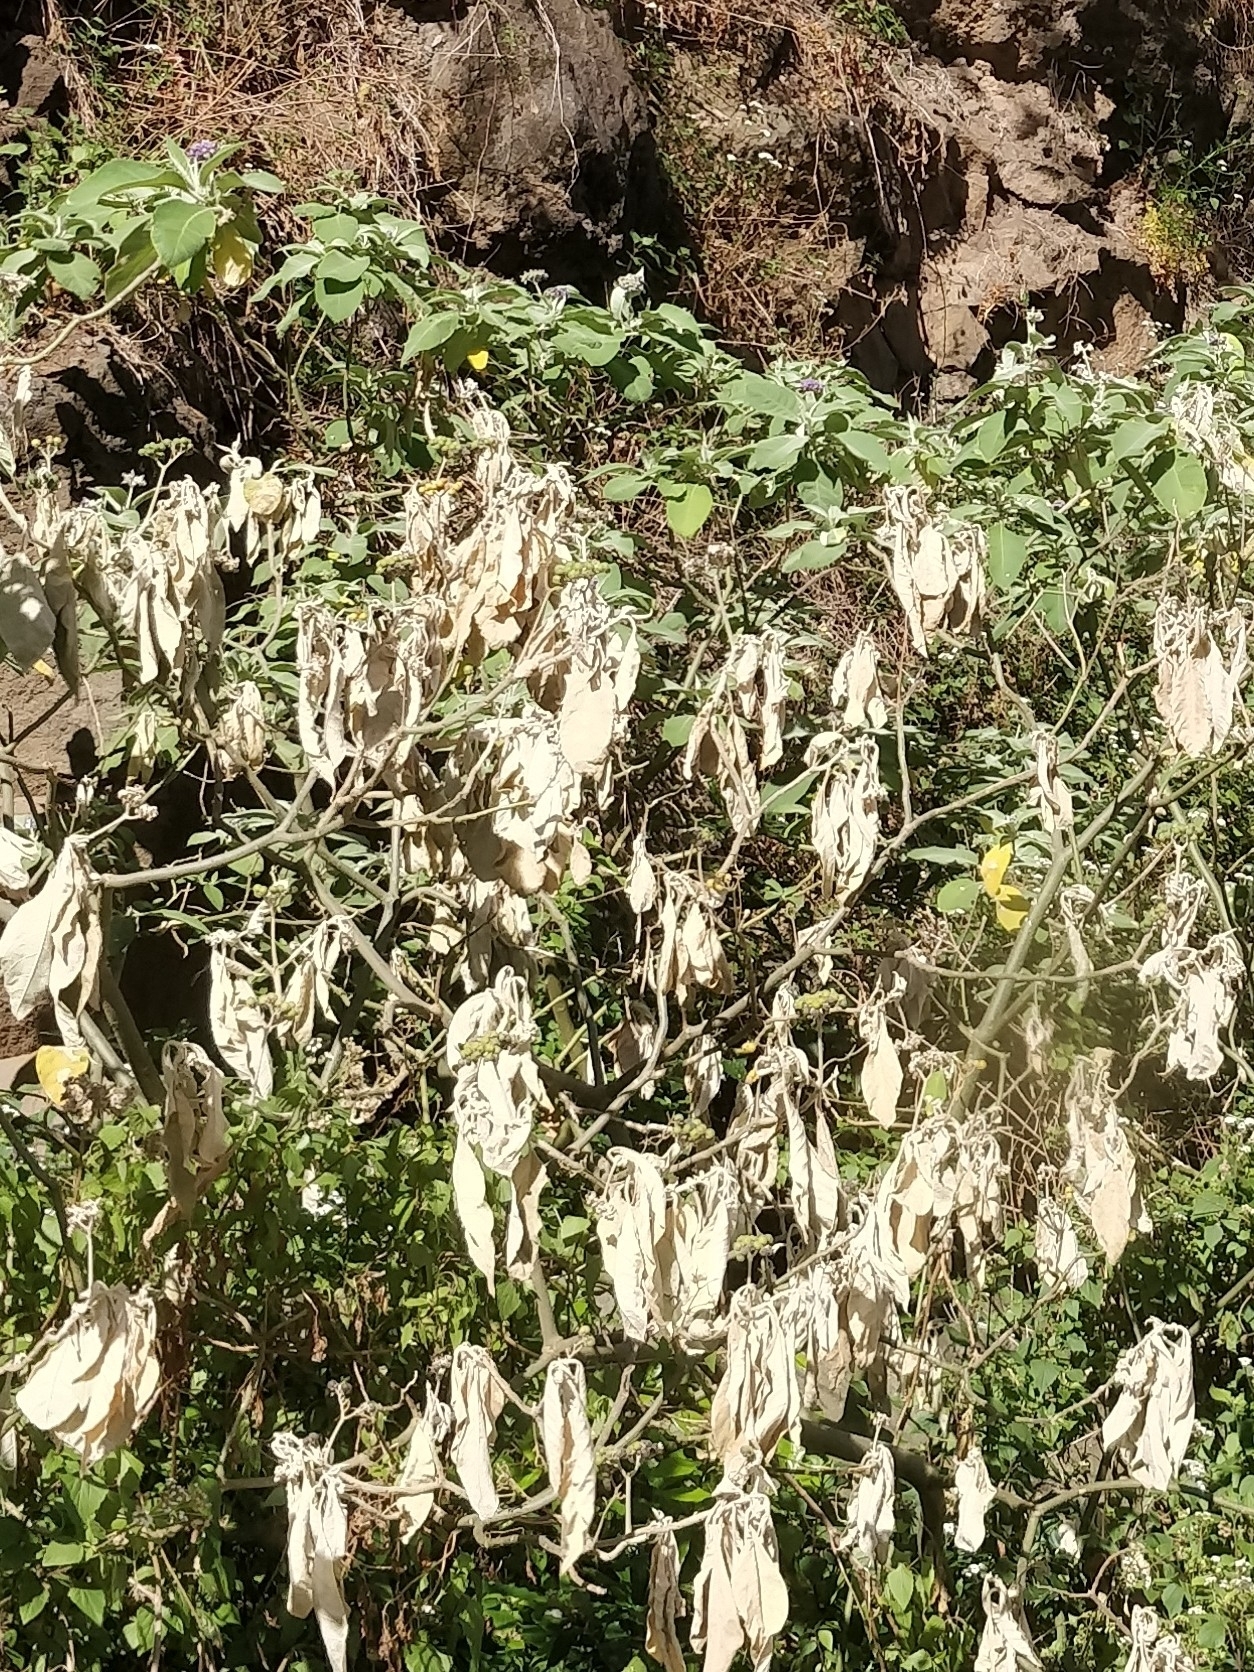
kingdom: Plantae
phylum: Tracheophyta
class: Magnoliopsida
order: Solanales
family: Solanaceae
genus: Solanum
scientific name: Solanum mauritianum
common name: Earleaf nightshade
